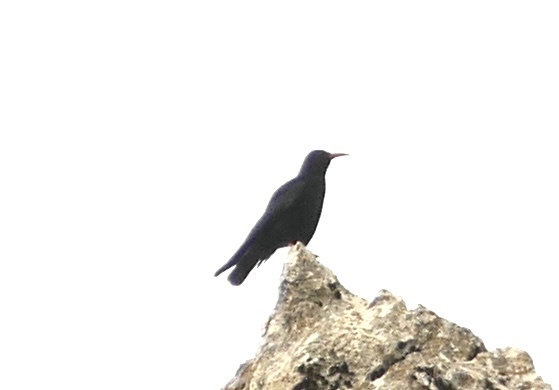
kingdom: Animalia
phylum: Chordata
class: Aves
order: Passeriformes
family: Corvidae
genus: Pyrrhocorax
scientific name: Pyrrhocorax pyrrhocorax
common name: Red-billed chough
